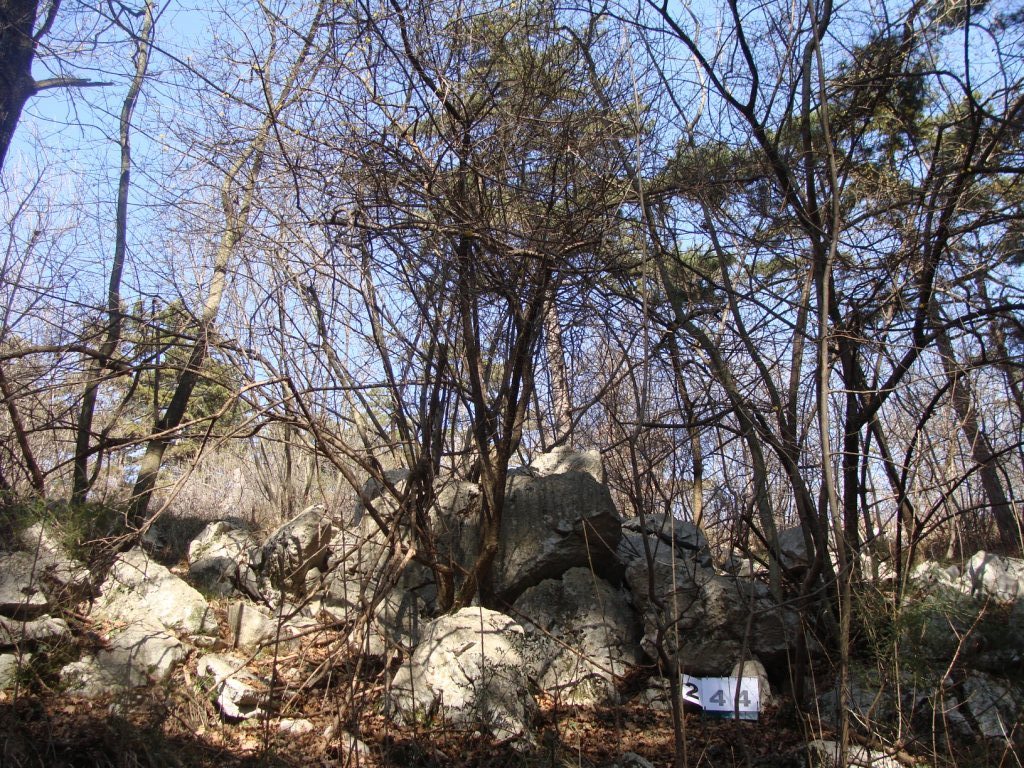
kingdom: Plantae
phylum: Tracheophyta
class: Magnoliopsida
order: Cornales
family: Cornaceae
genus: Cornus
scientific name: Cornus mas
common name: Cornelian-cherry
